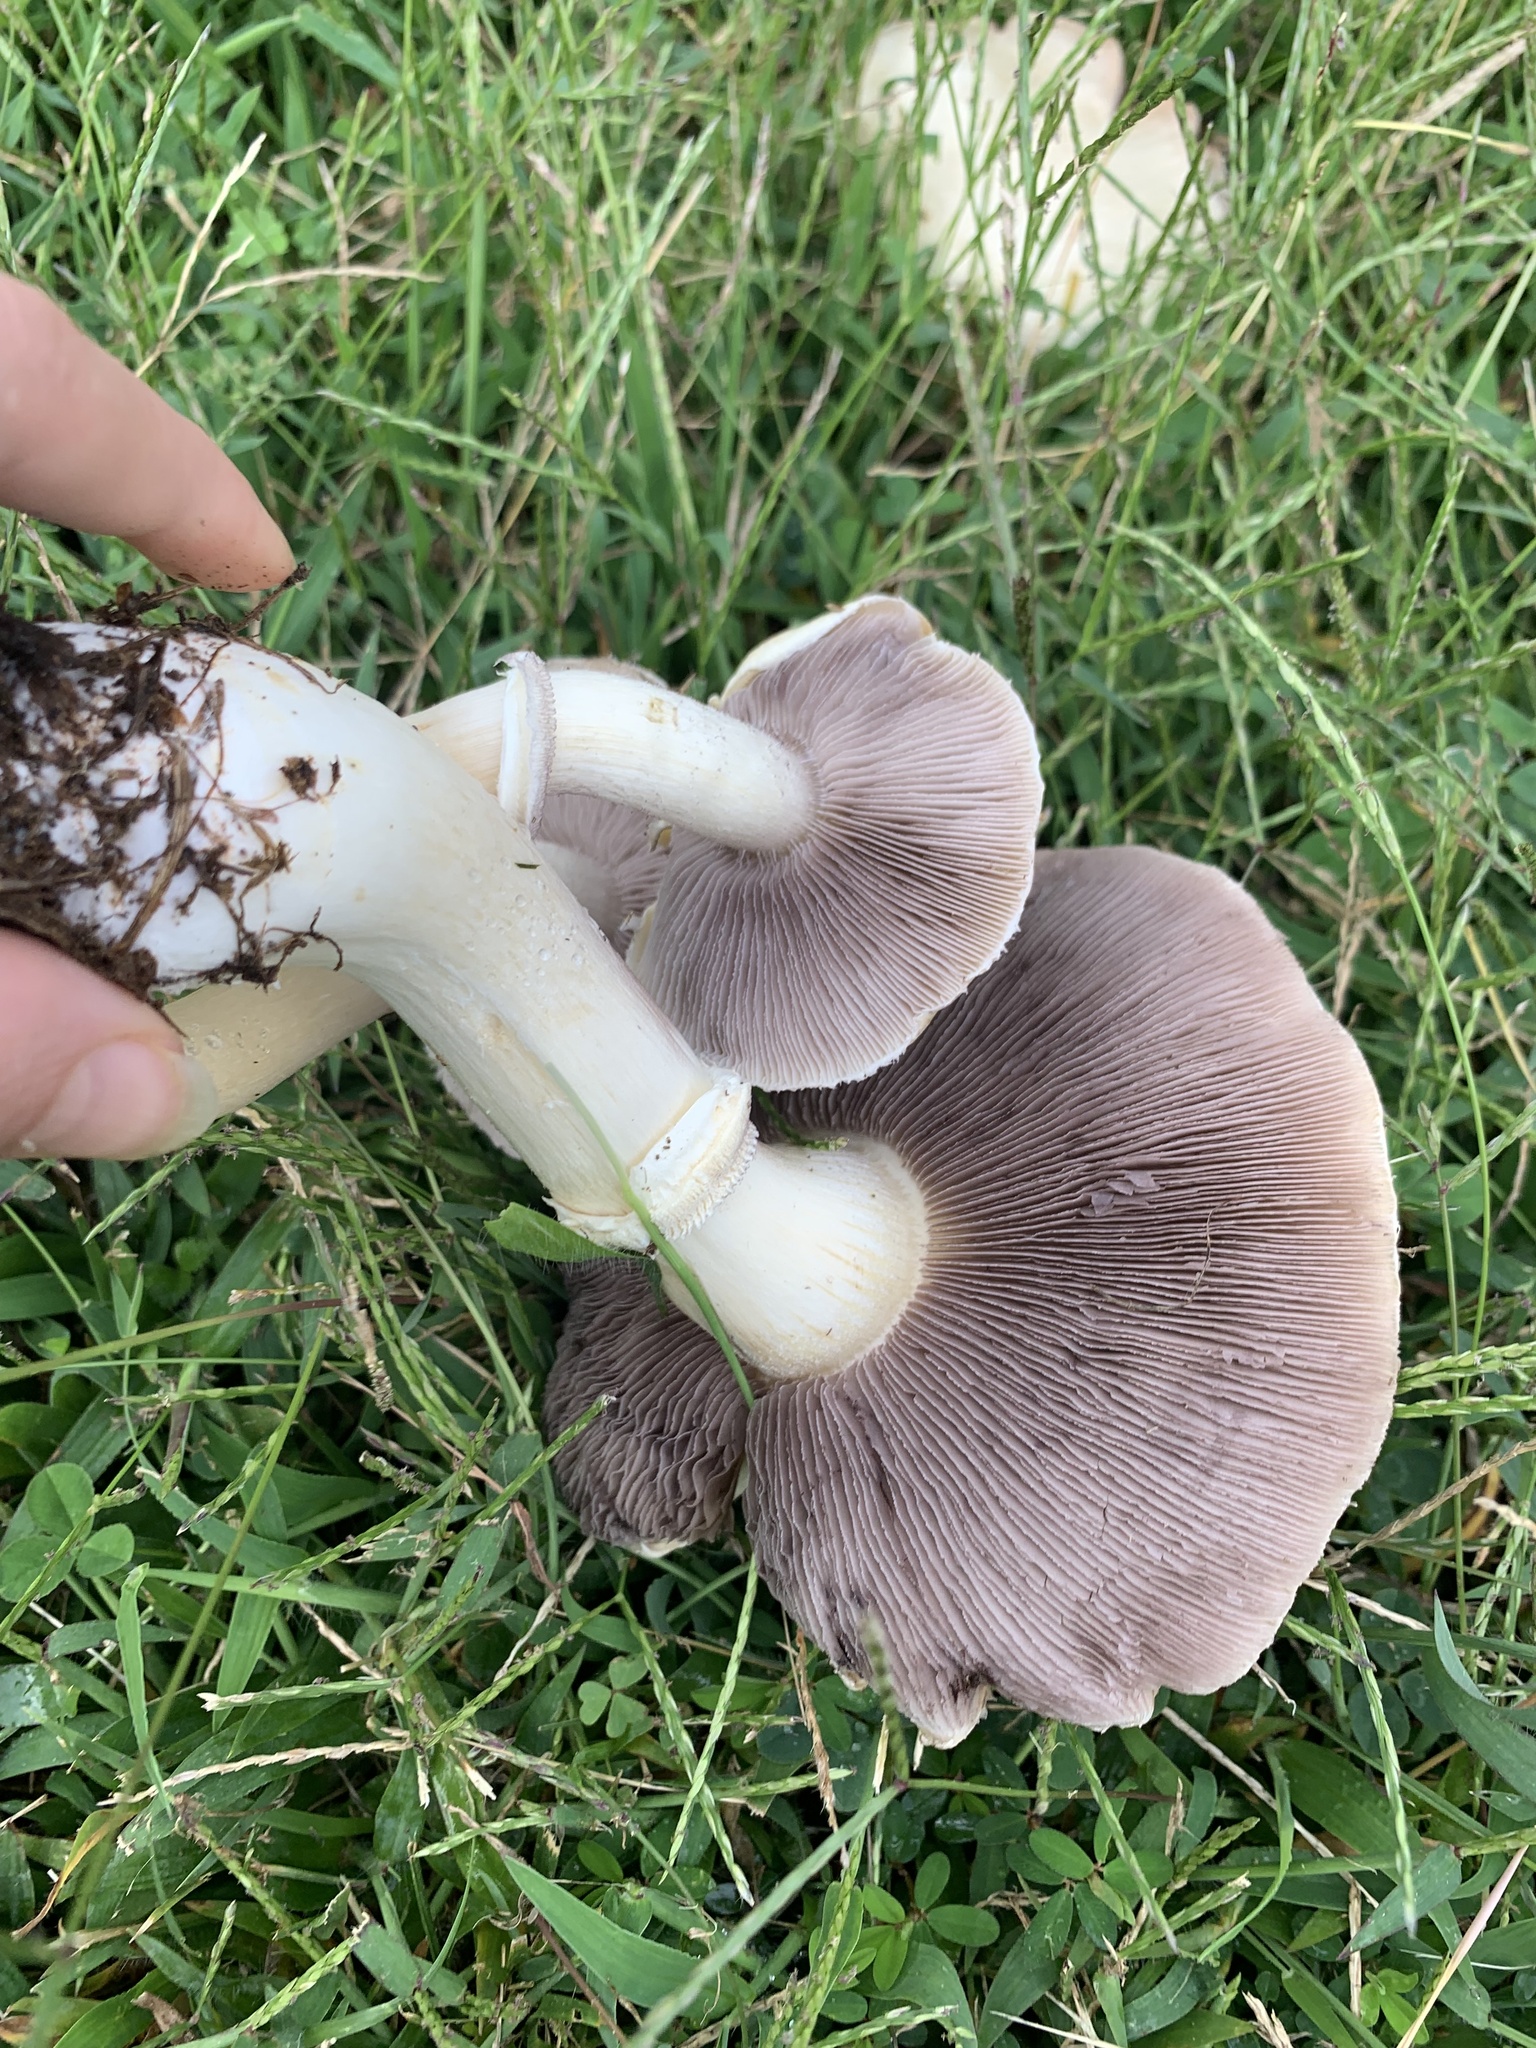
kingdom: Fungi
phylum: Basidiomycota
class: Agaricomycetes
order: Agaricales
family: Hymenogastraceae
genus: Psilocybe
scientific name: Psilocybe coronilla
